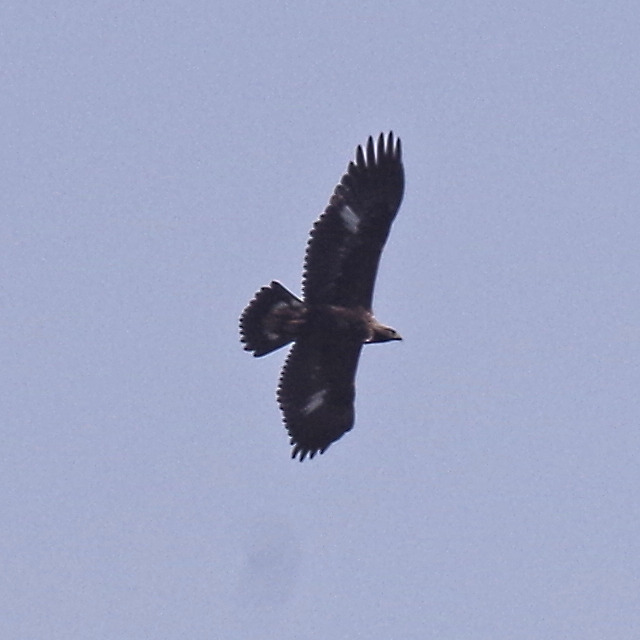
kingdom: Animalia
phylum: Chordata
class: Aves
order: Accipitriformes
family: Accipitridae
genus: Aquila
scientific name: Aquila chrysaetos
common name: Golden eagle
